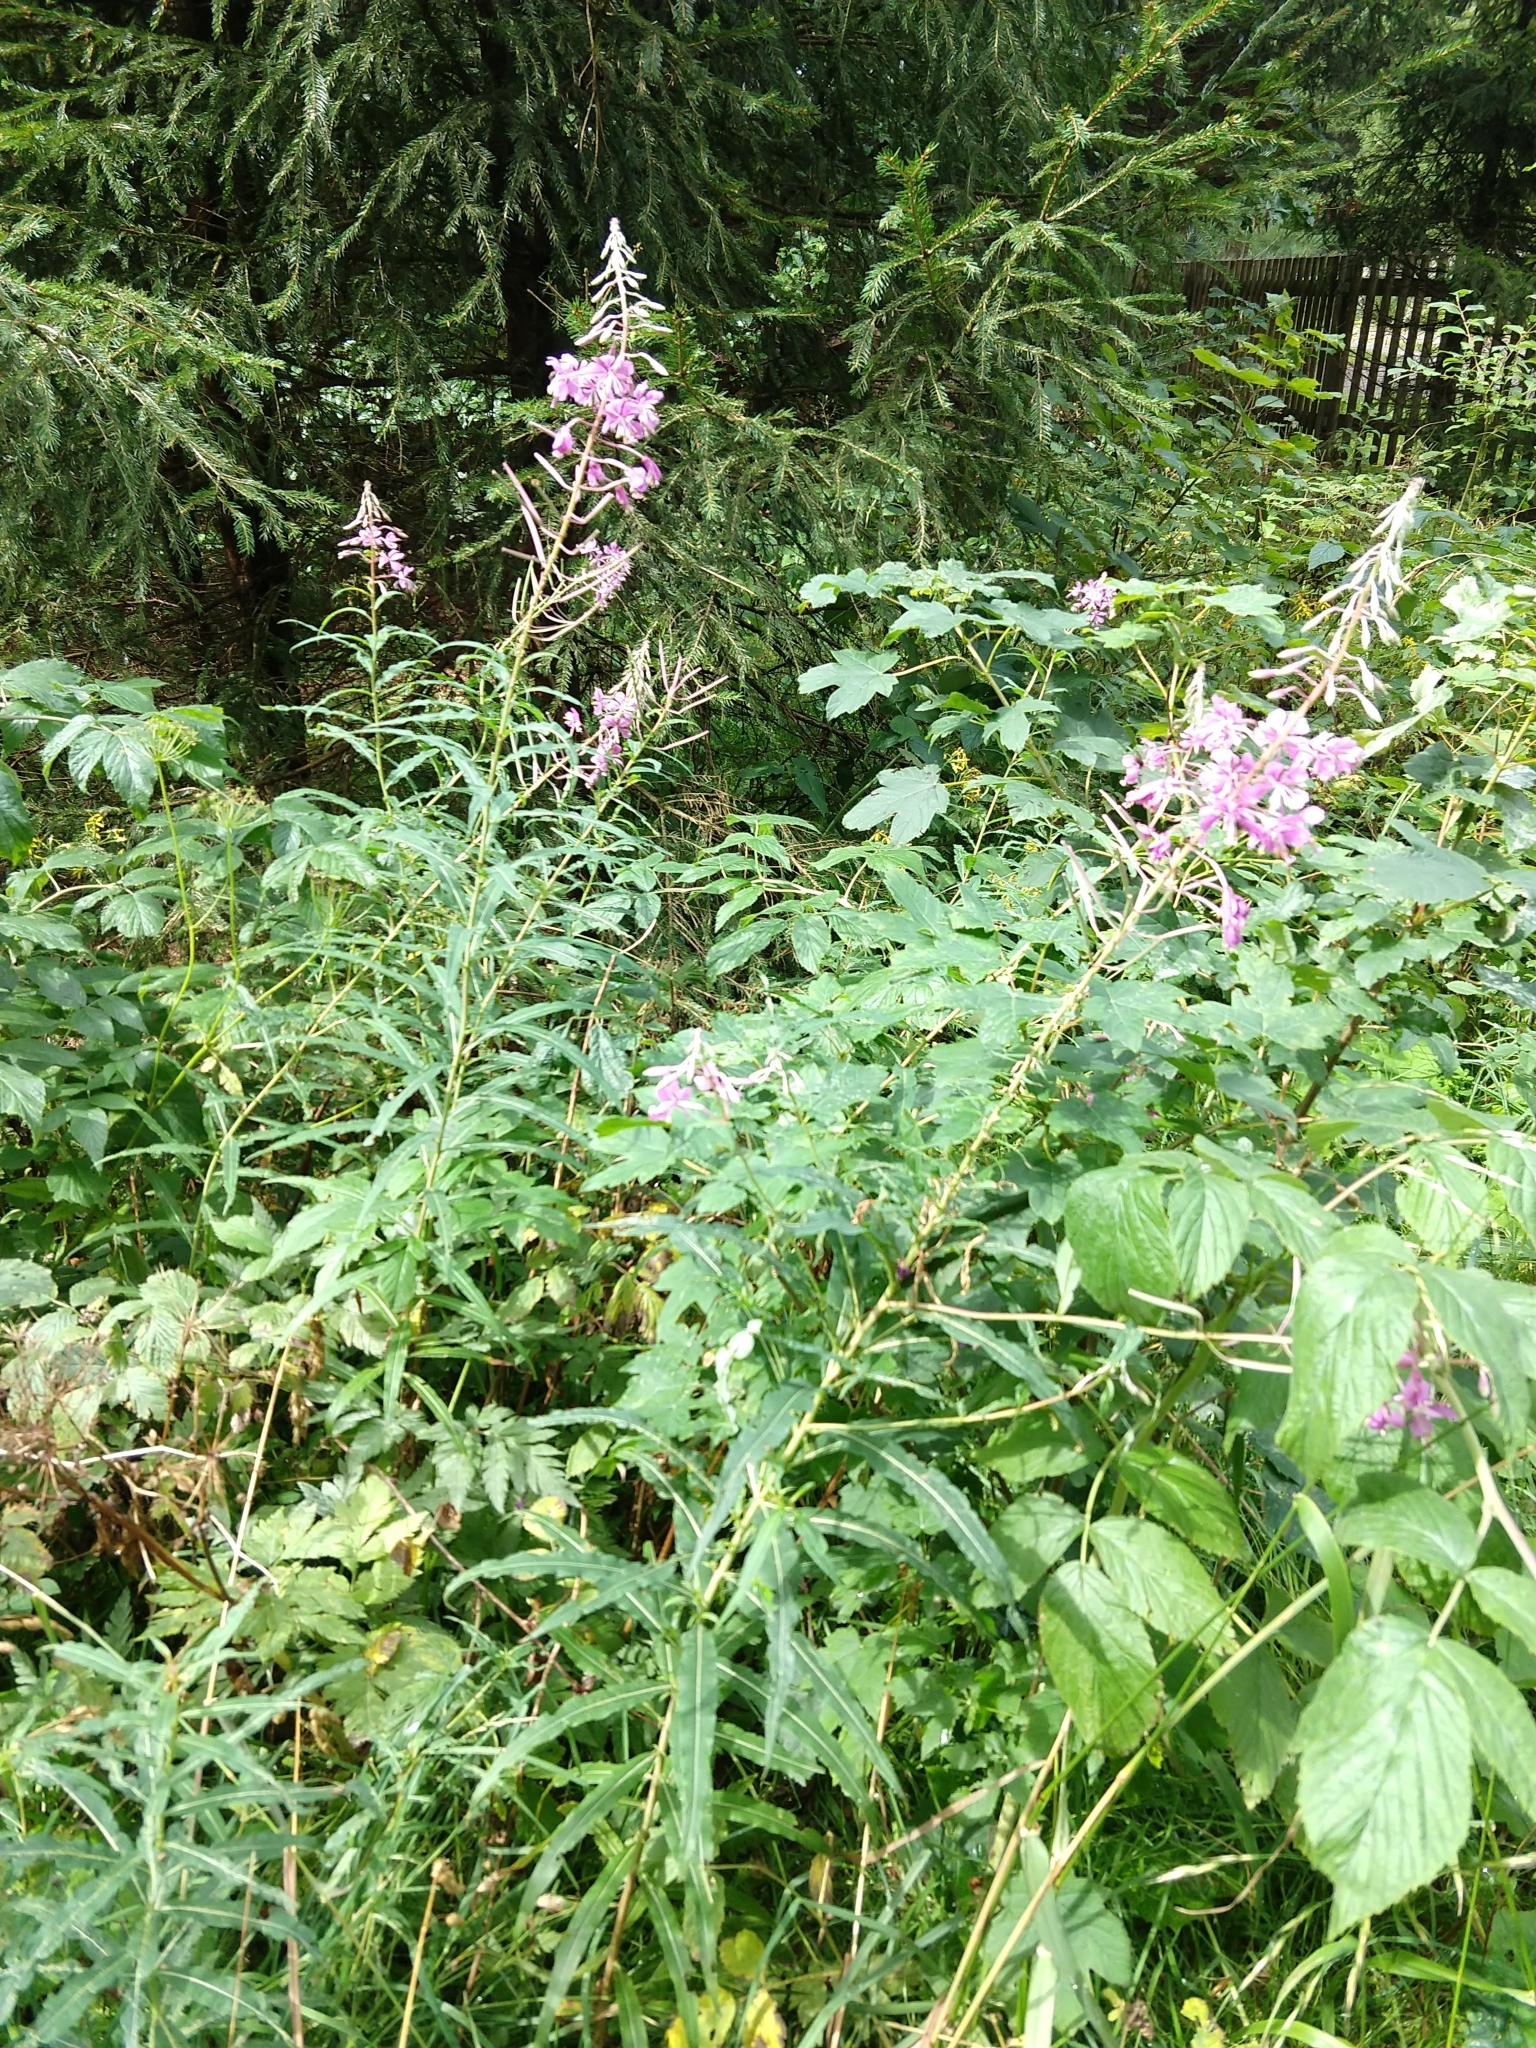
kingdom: Plantae
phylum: Tracheophyta
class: Magnoliopsida
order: Myrtales
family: Onagraceae
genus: Chamaenerion
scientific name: Chamaenerion angustifolium
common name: Fireweed
